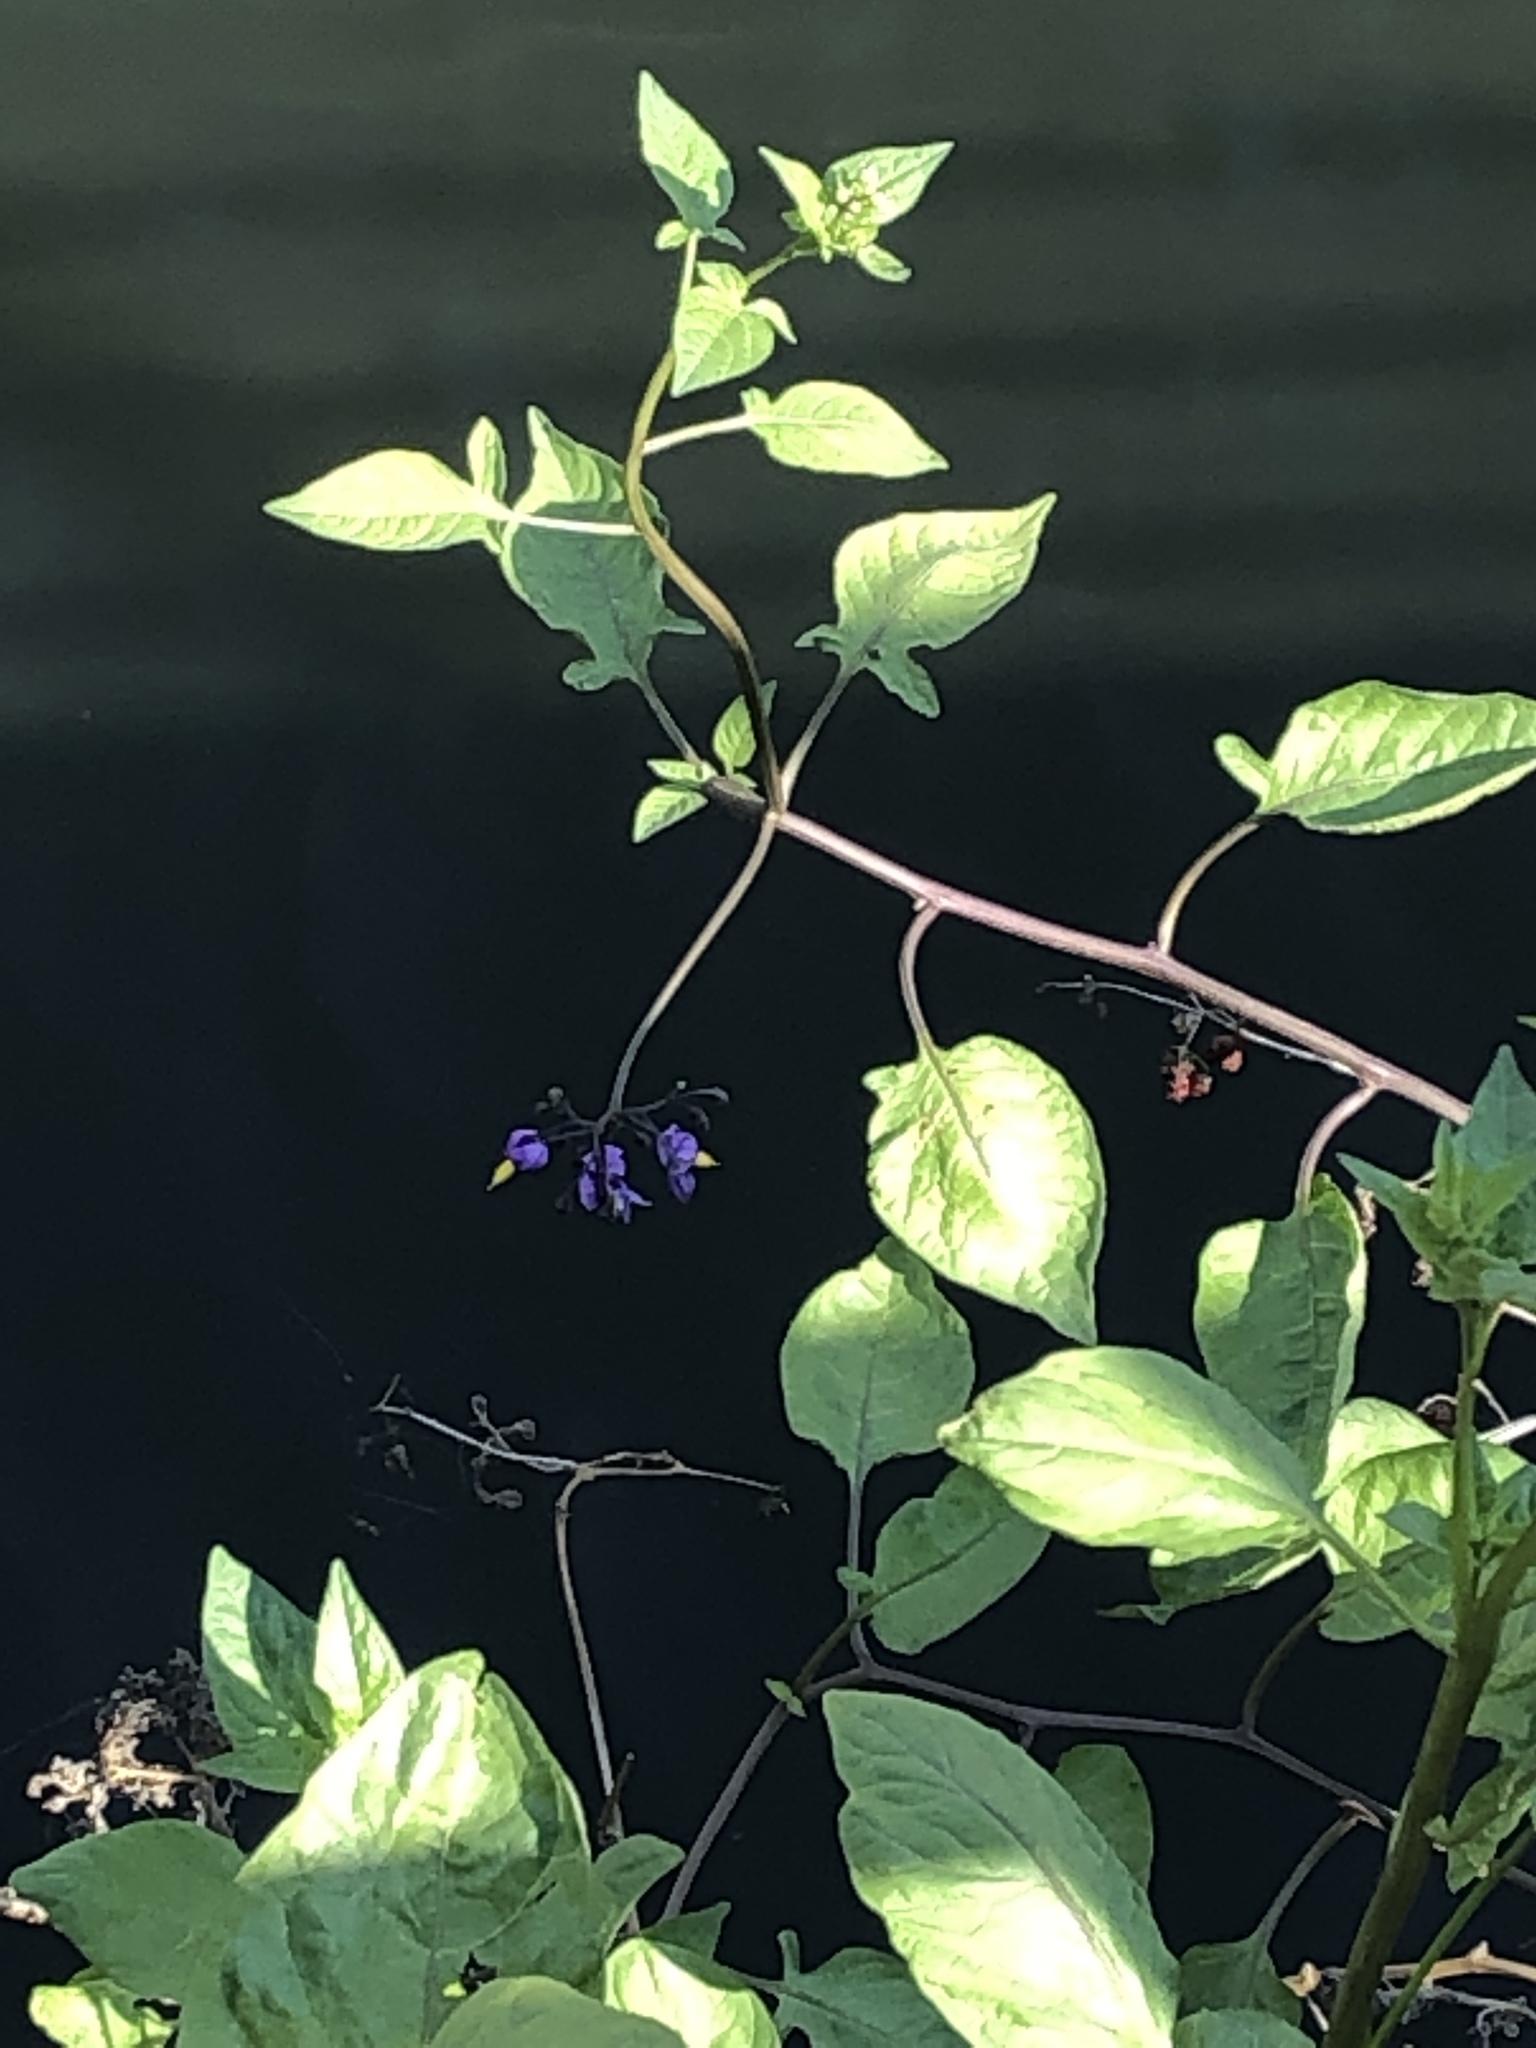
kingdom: Plantae
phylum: Tracheophyta
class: Magnoliopsida
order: Solanales
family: Solanaceae
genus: Solanum
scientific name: Solanum dulcamara
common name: Climbing nightshade
